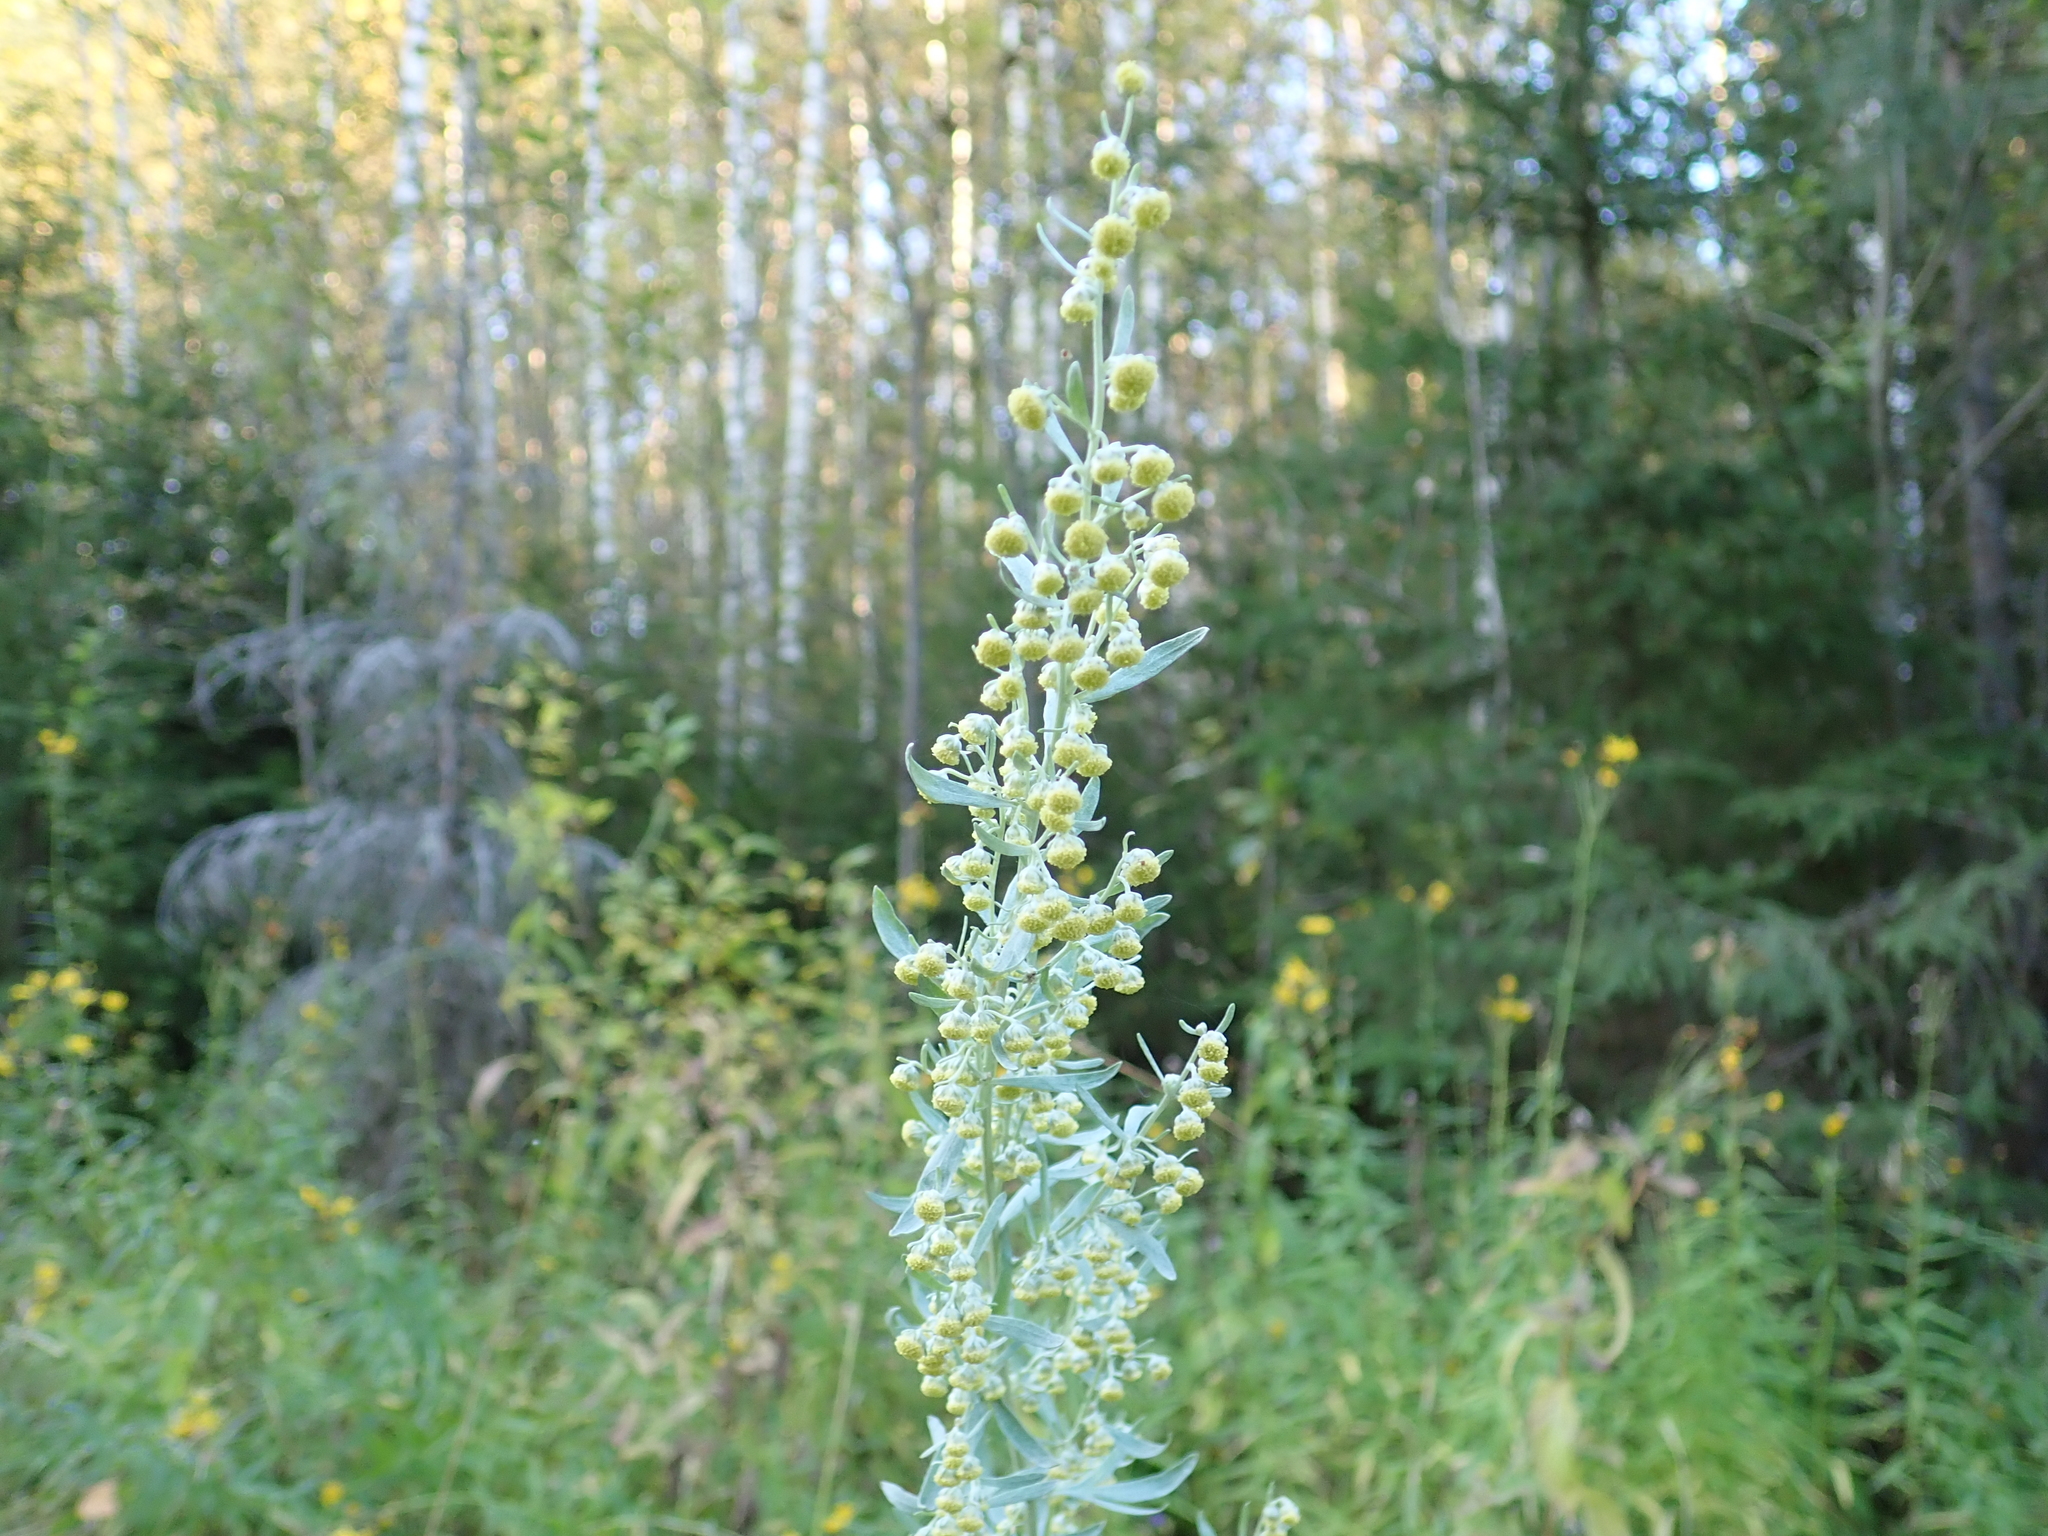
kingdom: Plantae
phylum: Tracheophyta
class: Magnoliopsida
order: Asterales
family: Asteraceae
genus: Artemisia
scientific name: Artemisia absinthium
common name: Wormwood
